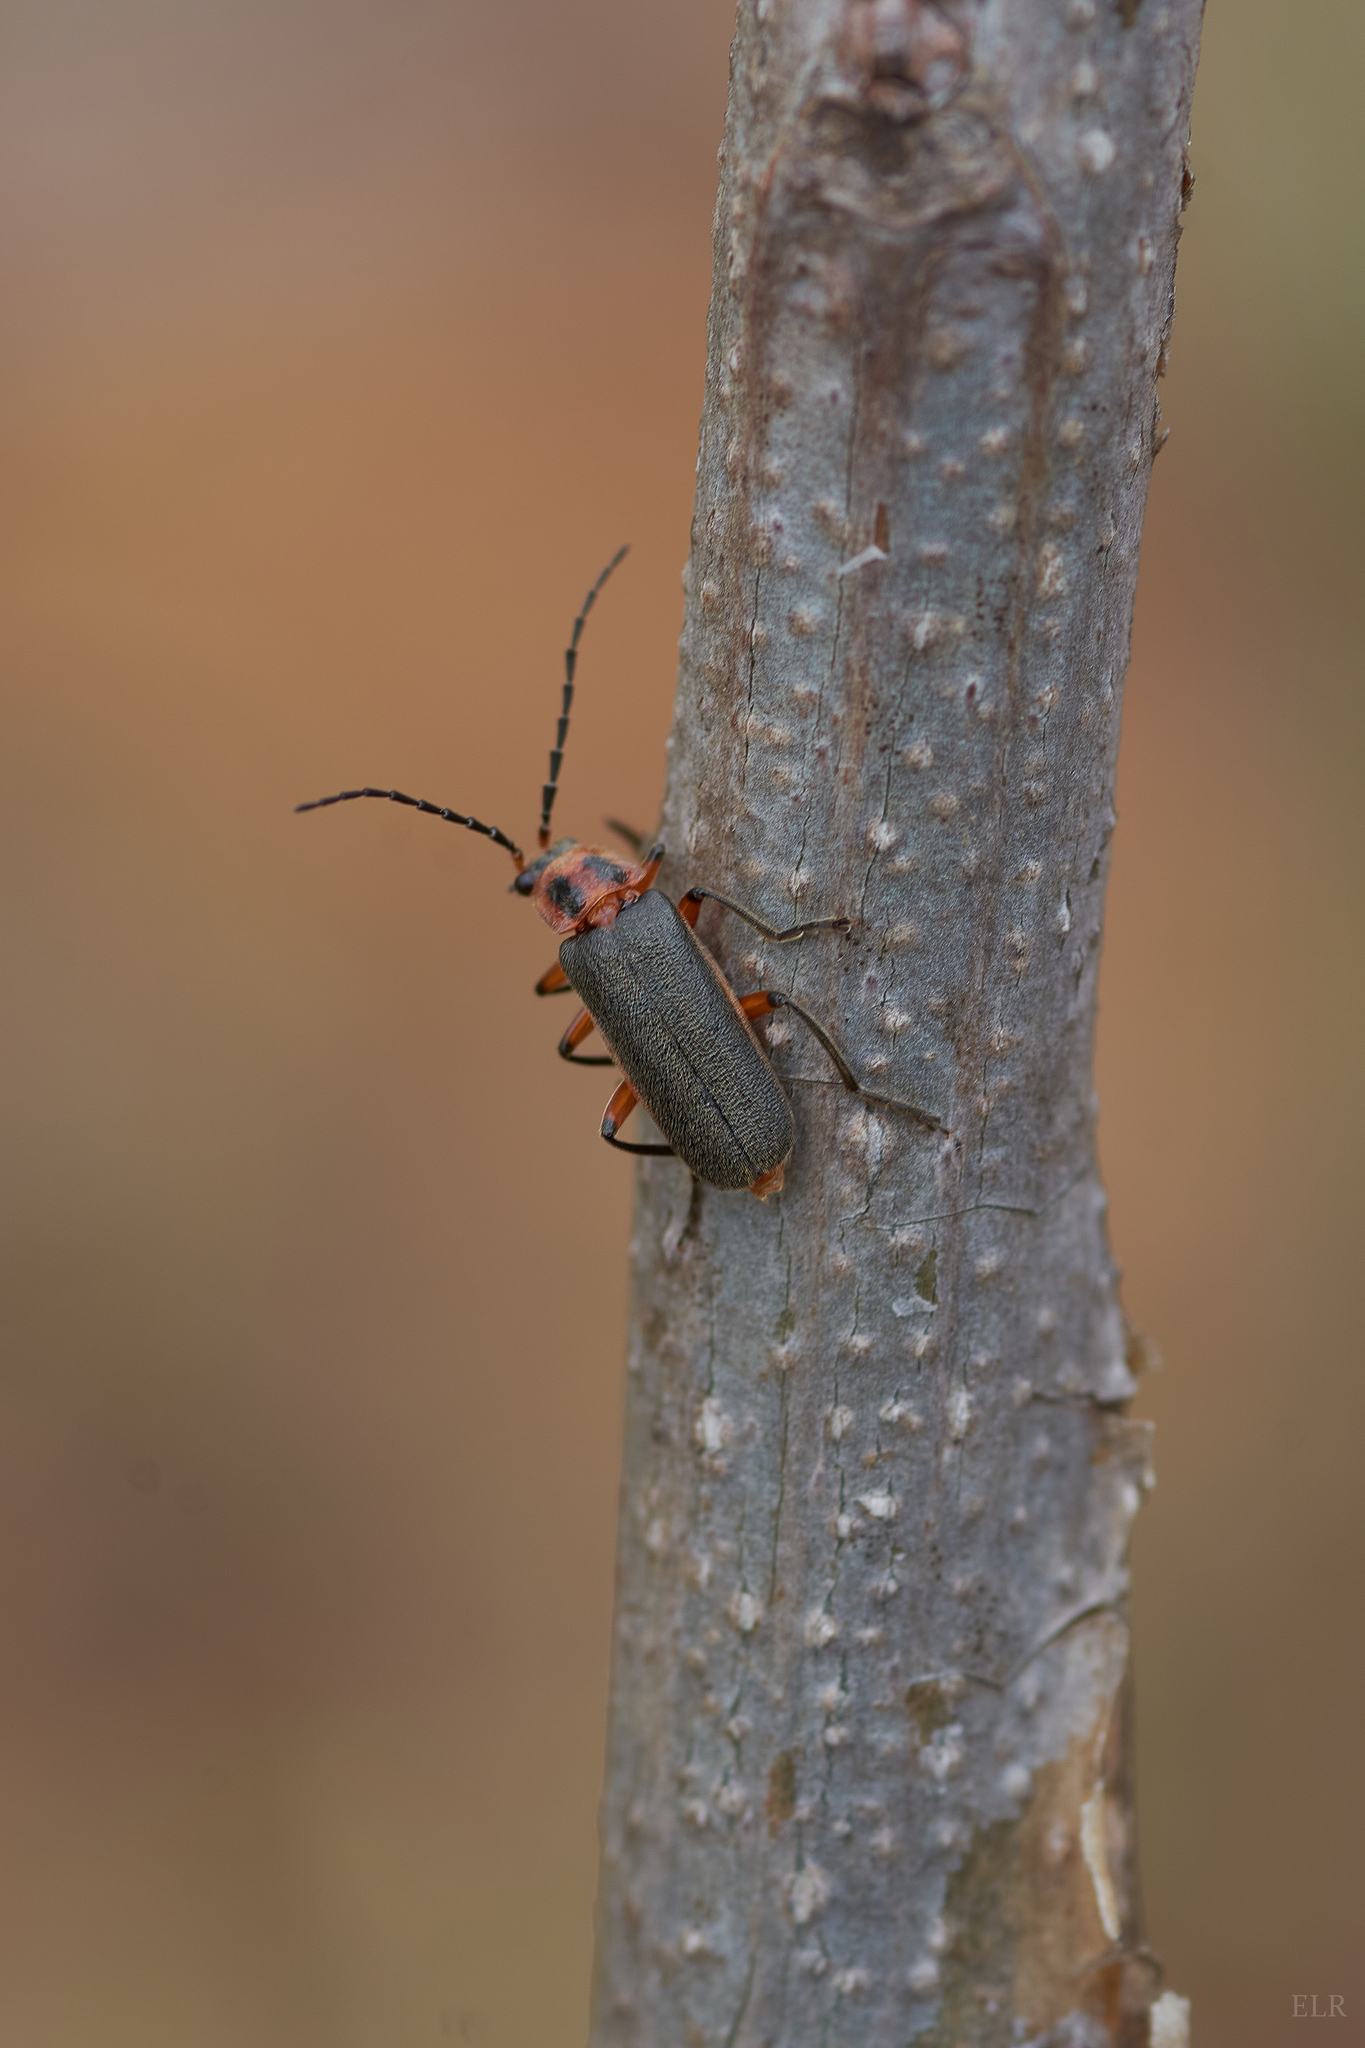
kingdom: Animalia
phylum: Arthropoda
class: Insecta
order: Coleoptera
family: Cantharidae
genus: Atalantycha
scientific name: Atalantycha bilineata
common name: Two-lined leatherwing
